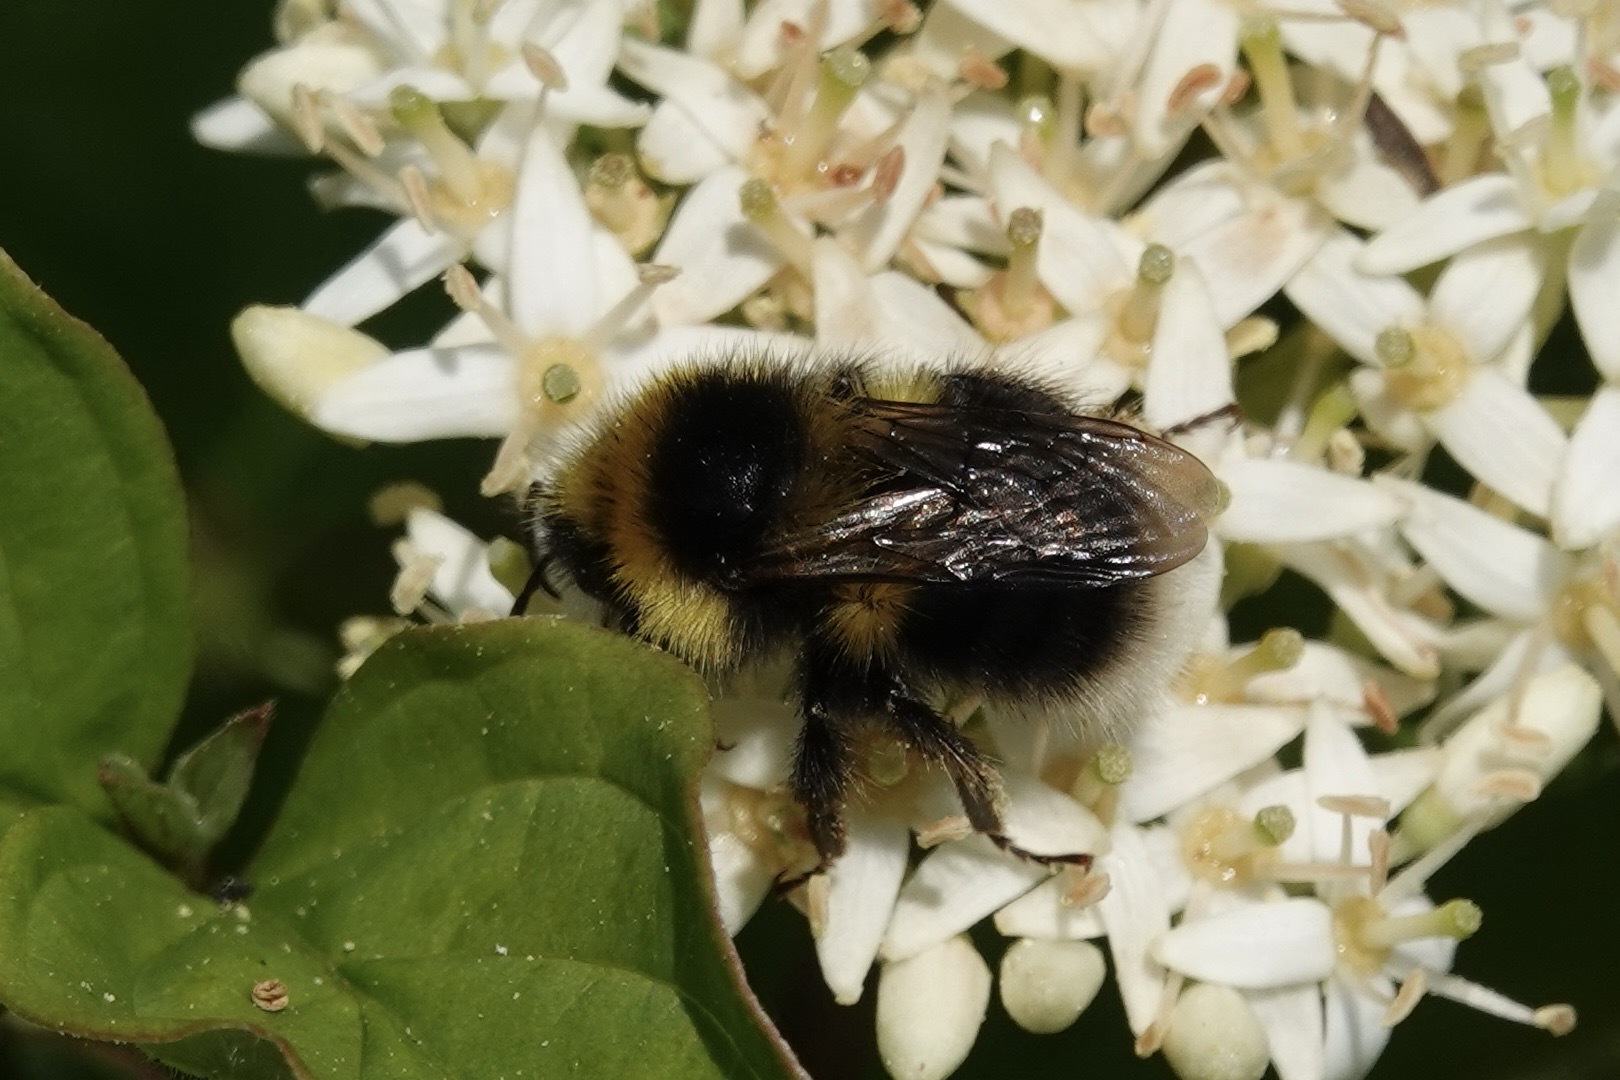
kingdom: Animalia
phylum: Arthropoda
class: Insecta
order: Hymenoptera
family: Apidae
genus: Bombus
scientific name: Bombus jonellus
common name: Heath humble-bee
